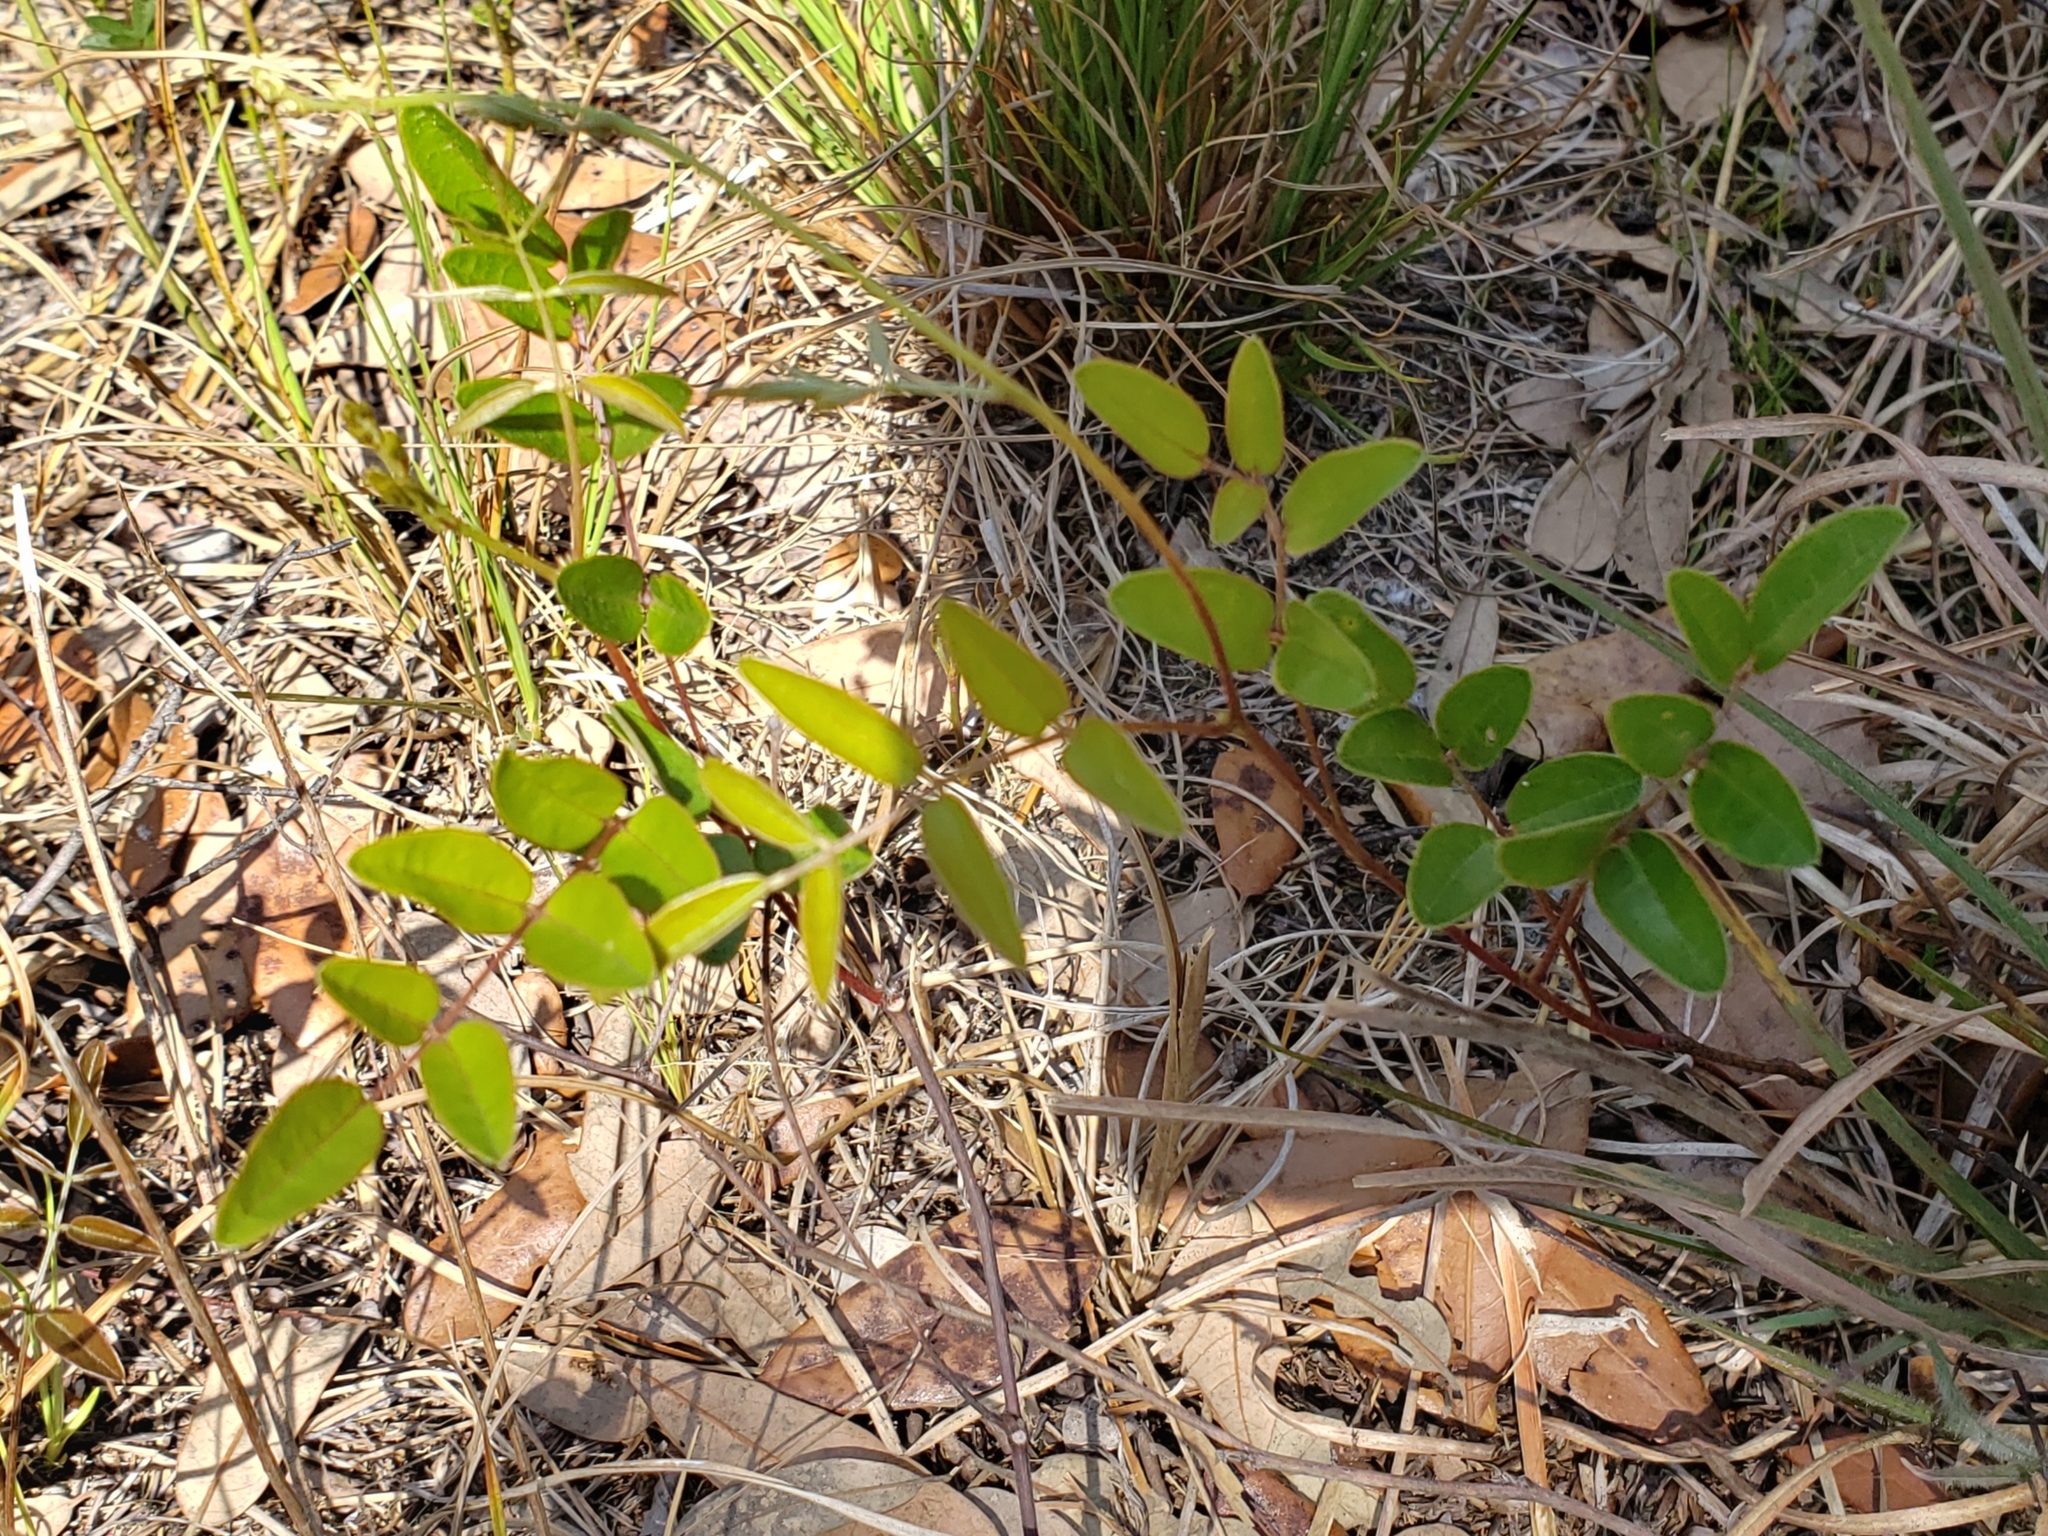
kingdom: Plantae
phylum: Tracheophyta
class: Magnoliopsida
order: Fabales
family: Fabaceae
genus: Galactia
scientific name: Galactia elliottii
